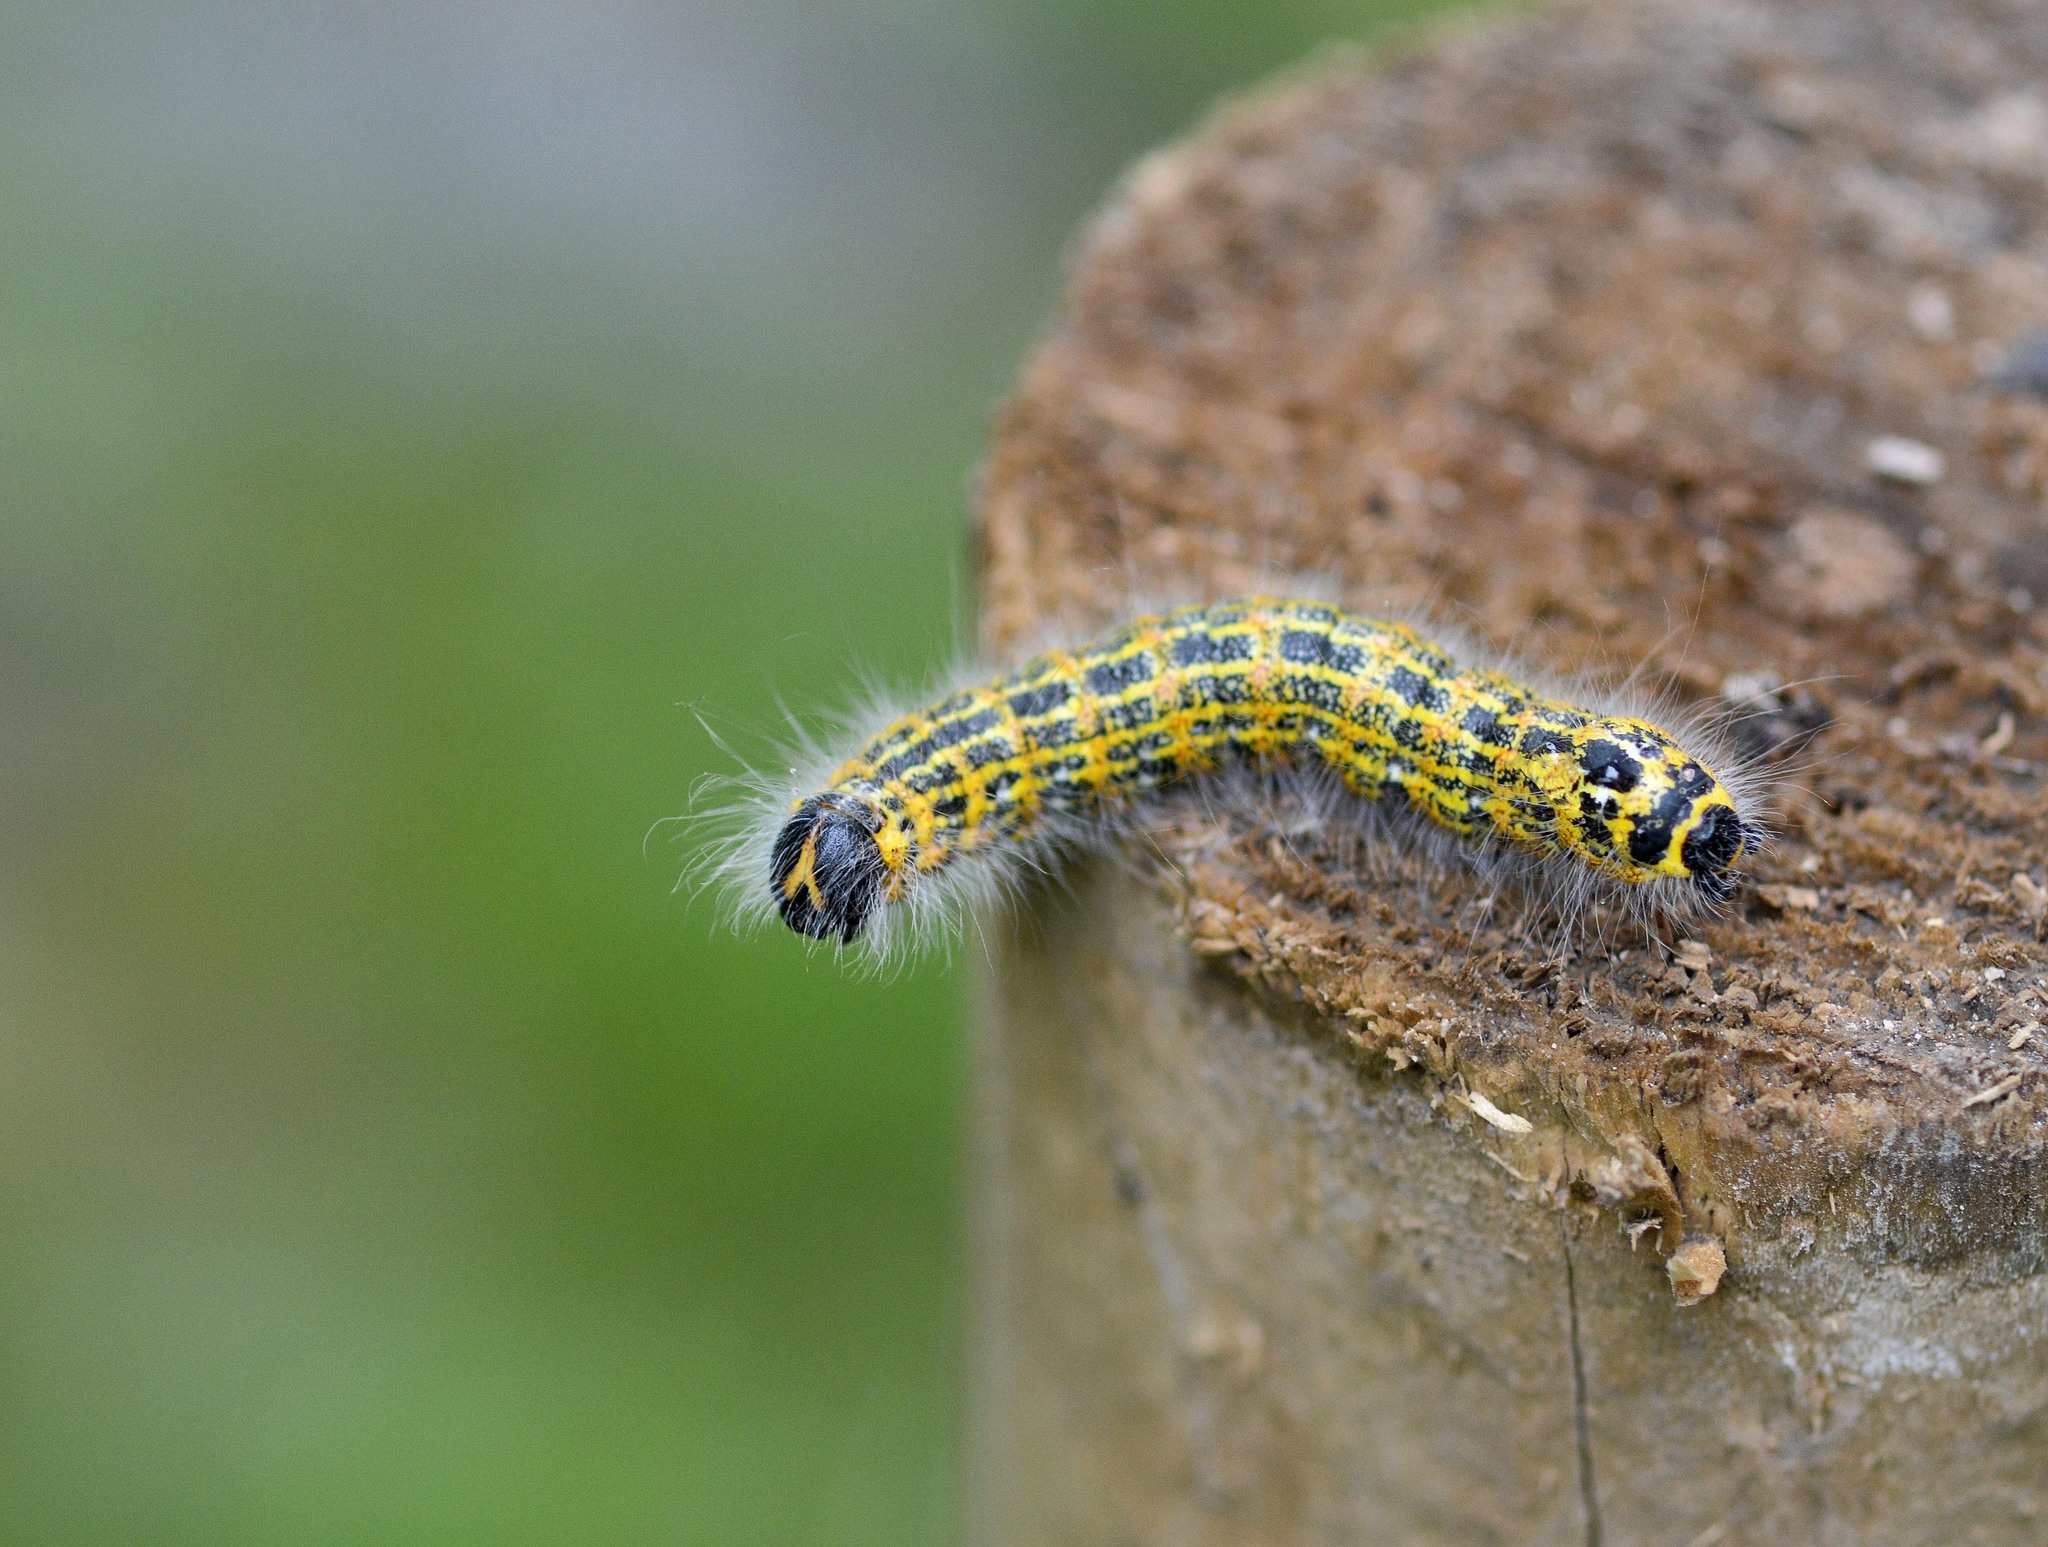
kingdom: Animalia
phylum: Arthropoda
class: Insecta
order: Lepidoptera
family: Notodontidae
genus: Phalera
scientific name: Phalera bucephala
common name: Buff-tip
